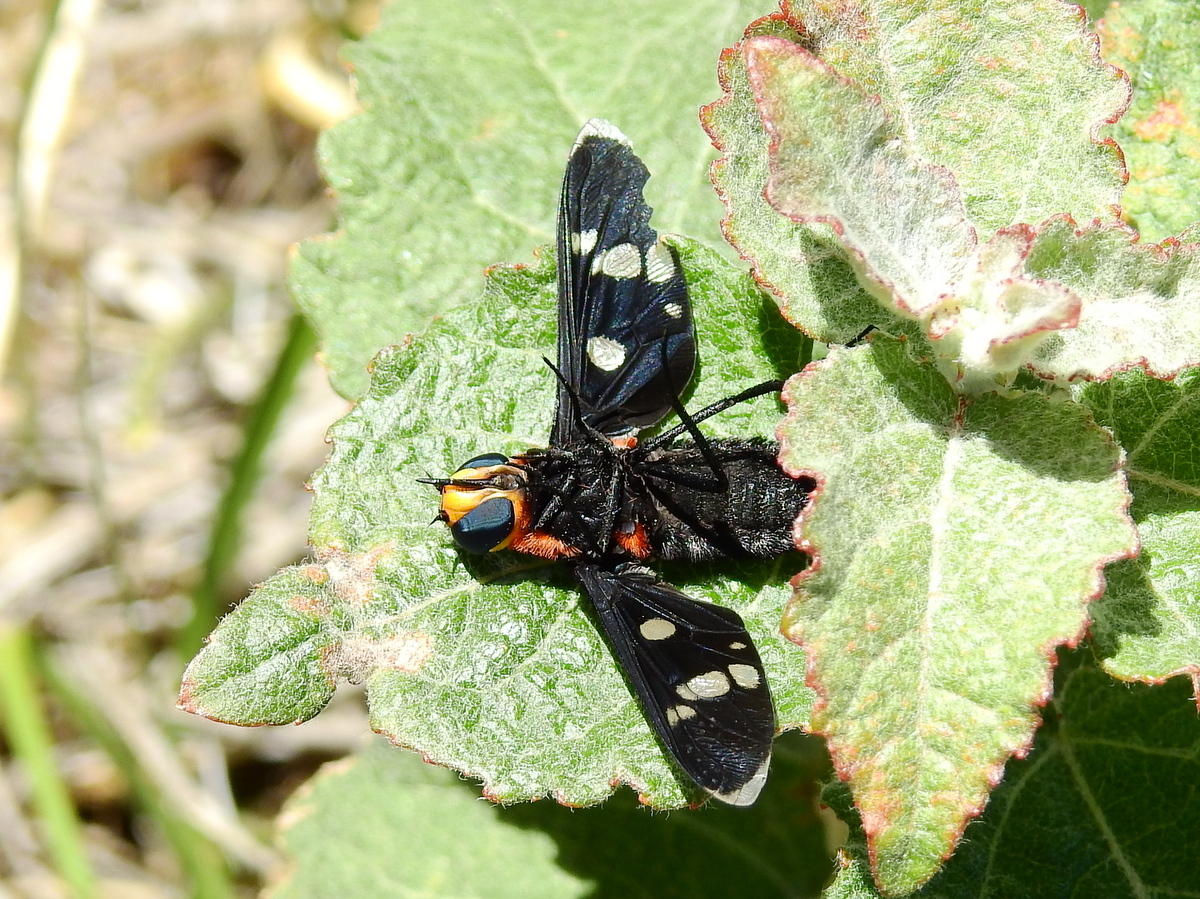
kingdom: Animalia
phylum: Arthropoda
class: Insecta
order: Diptera
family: Bombyliidae
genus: Hyperalonia
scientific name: Hyperalonia morio
